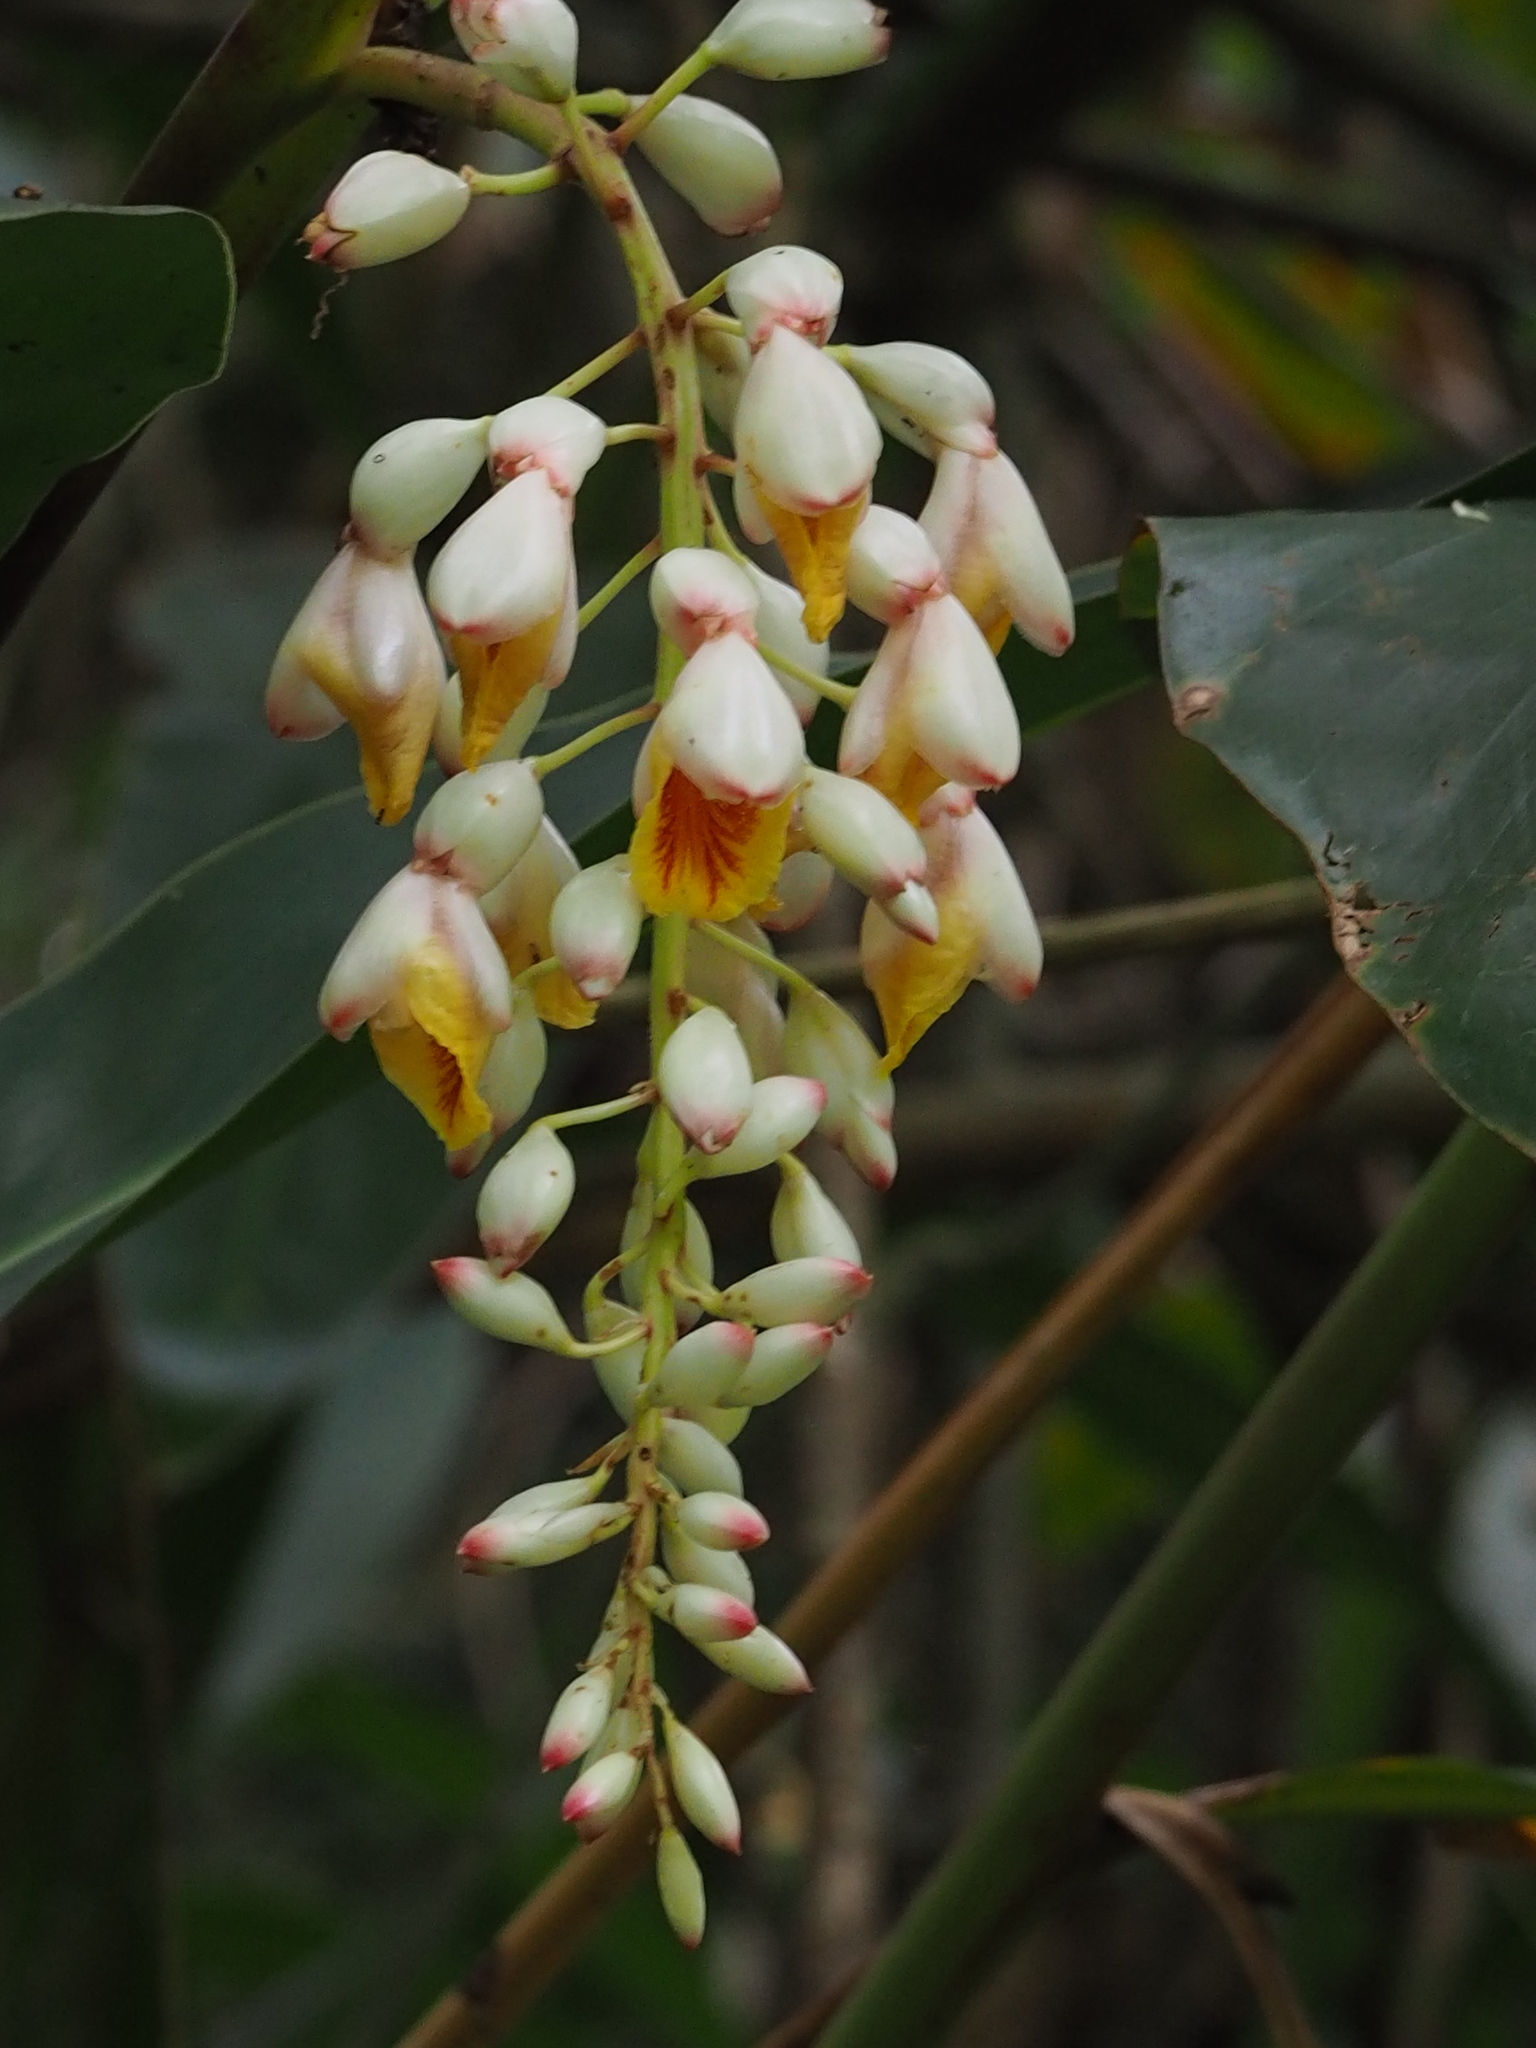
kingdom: Plantae
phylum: Tracheophyta
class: Liliopsida
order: Zingiberales
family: Zingiberaceae
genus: Alpinia
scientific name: Alpinia zerumbet
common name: Shellplant
